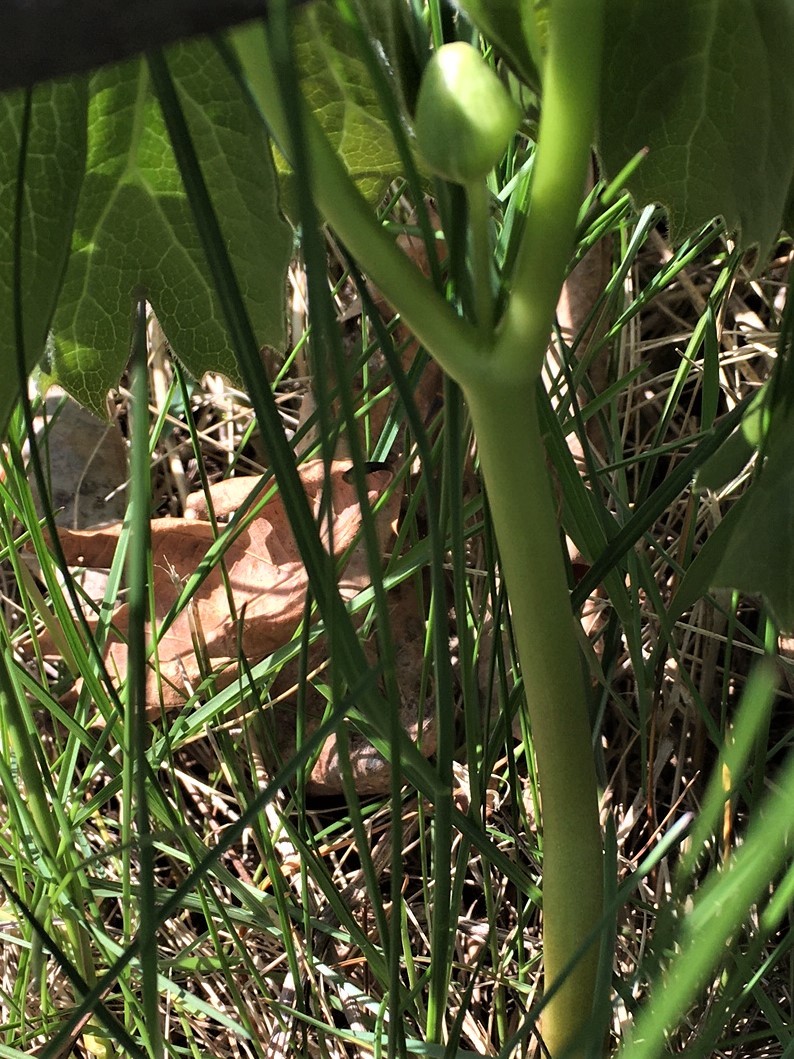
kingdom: Plantae
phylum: Tracheophyta
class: Magnoliopsida
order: Ranunculales
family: Berberidaceae
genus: Podophyllum
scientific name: Podophyllum peltatum
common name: Wild mandrake
